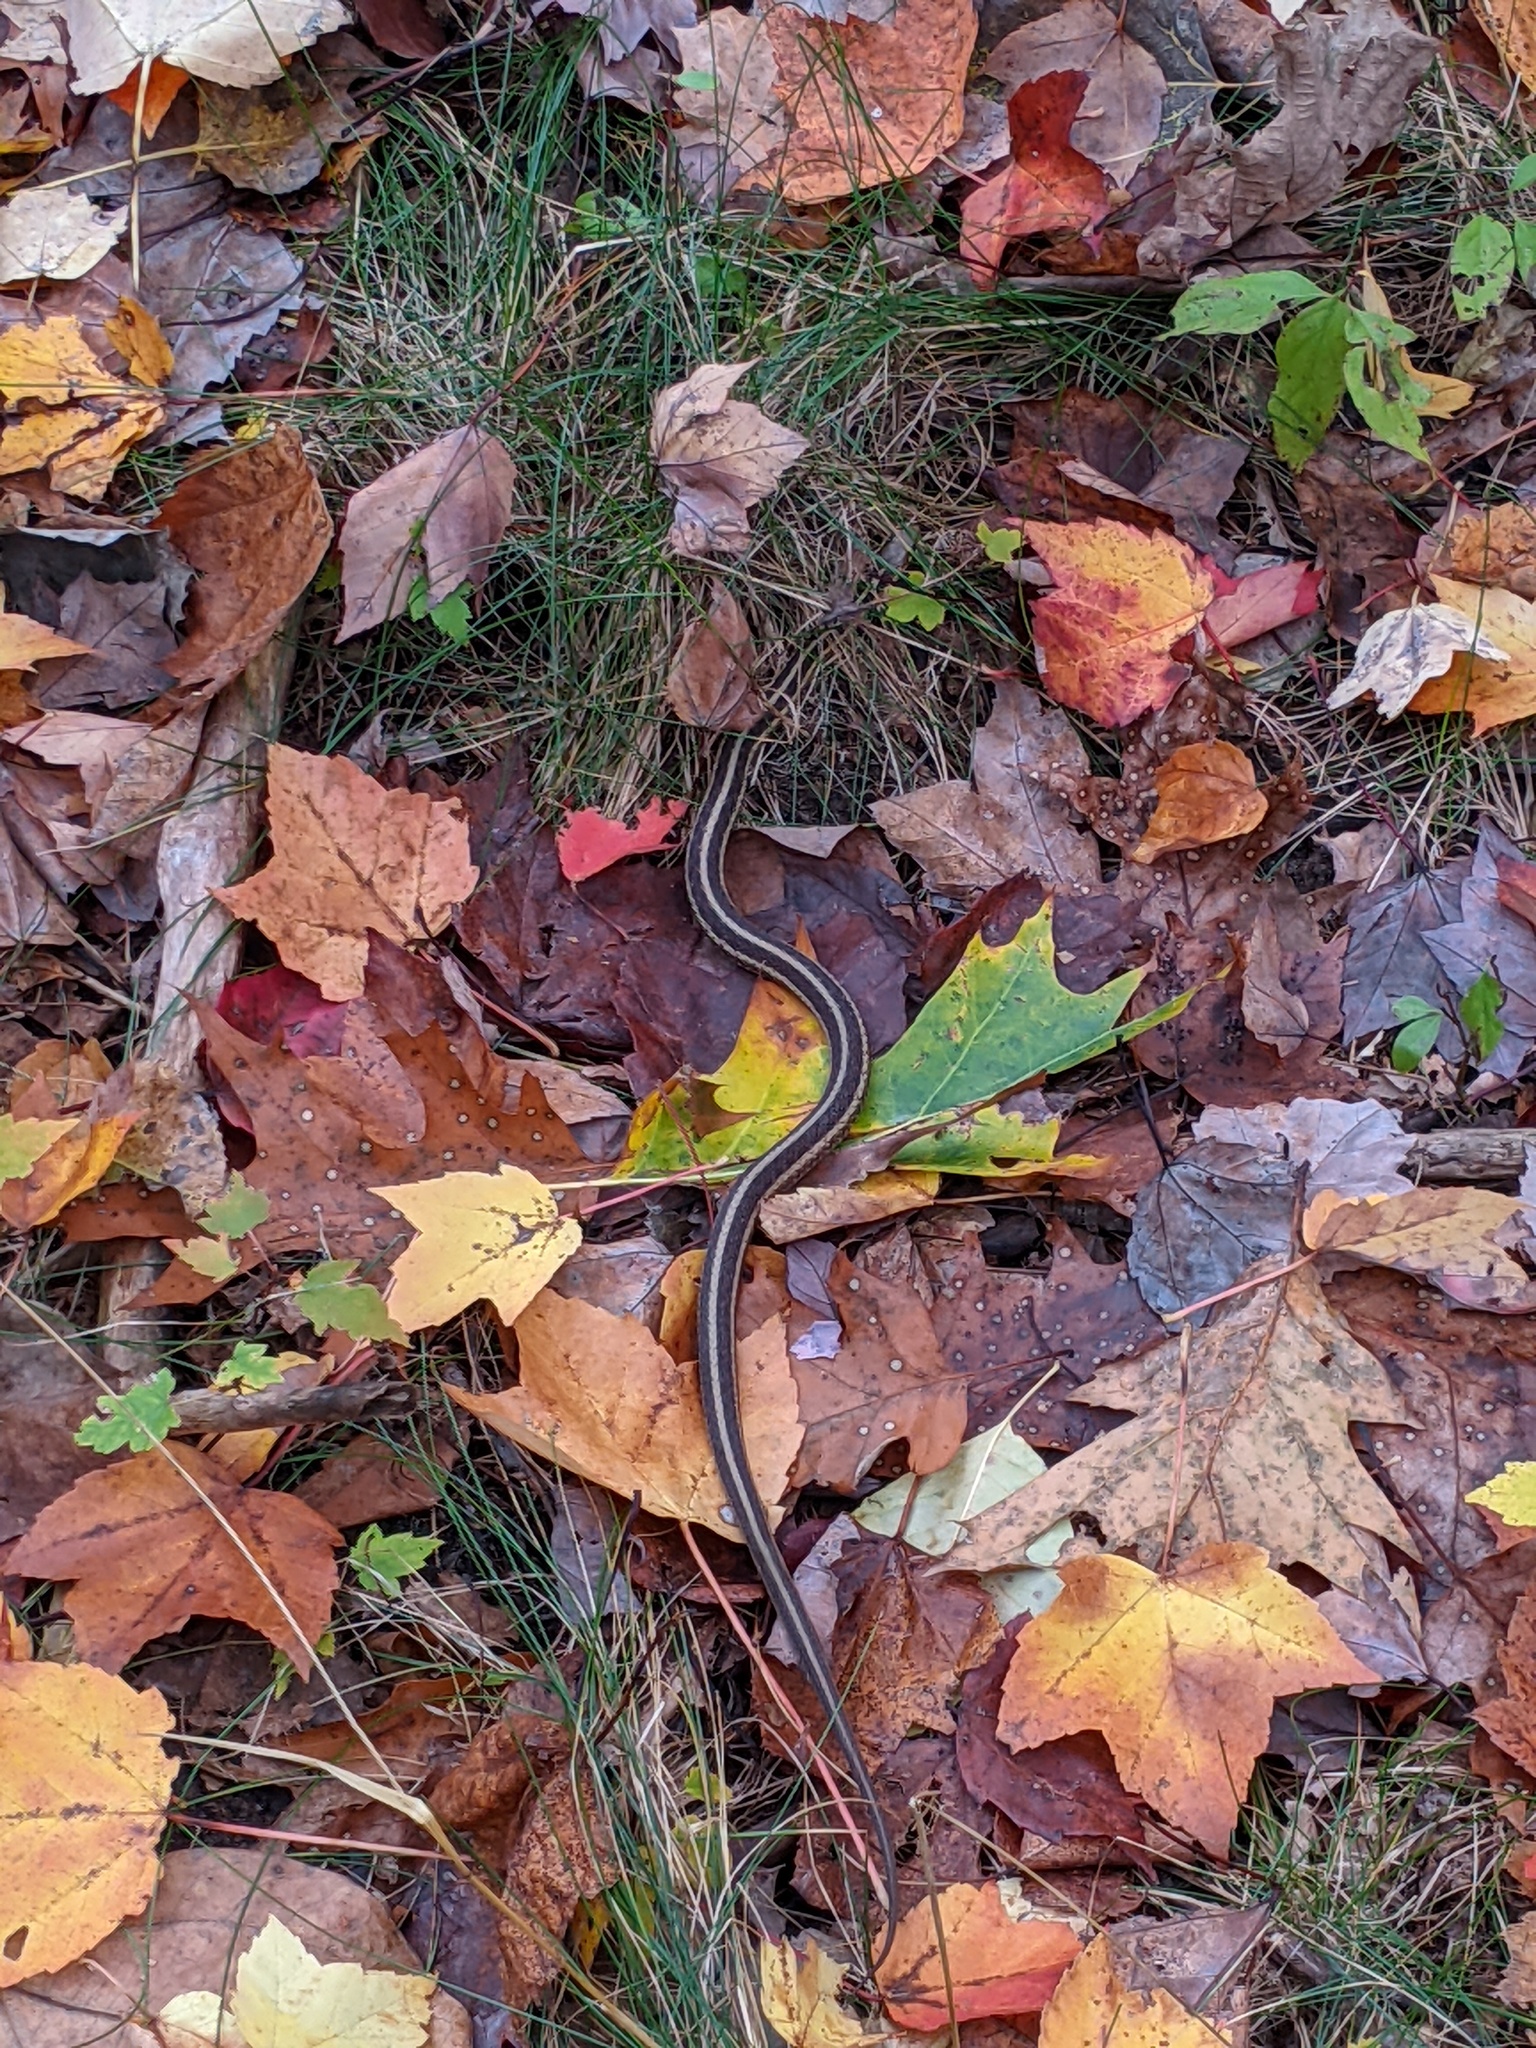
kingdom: Animalia
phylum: Chordata
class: Squamata
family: Colubridae
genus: Thamnophis
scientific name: Thamnophis sirtalis
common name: Common garter snake
